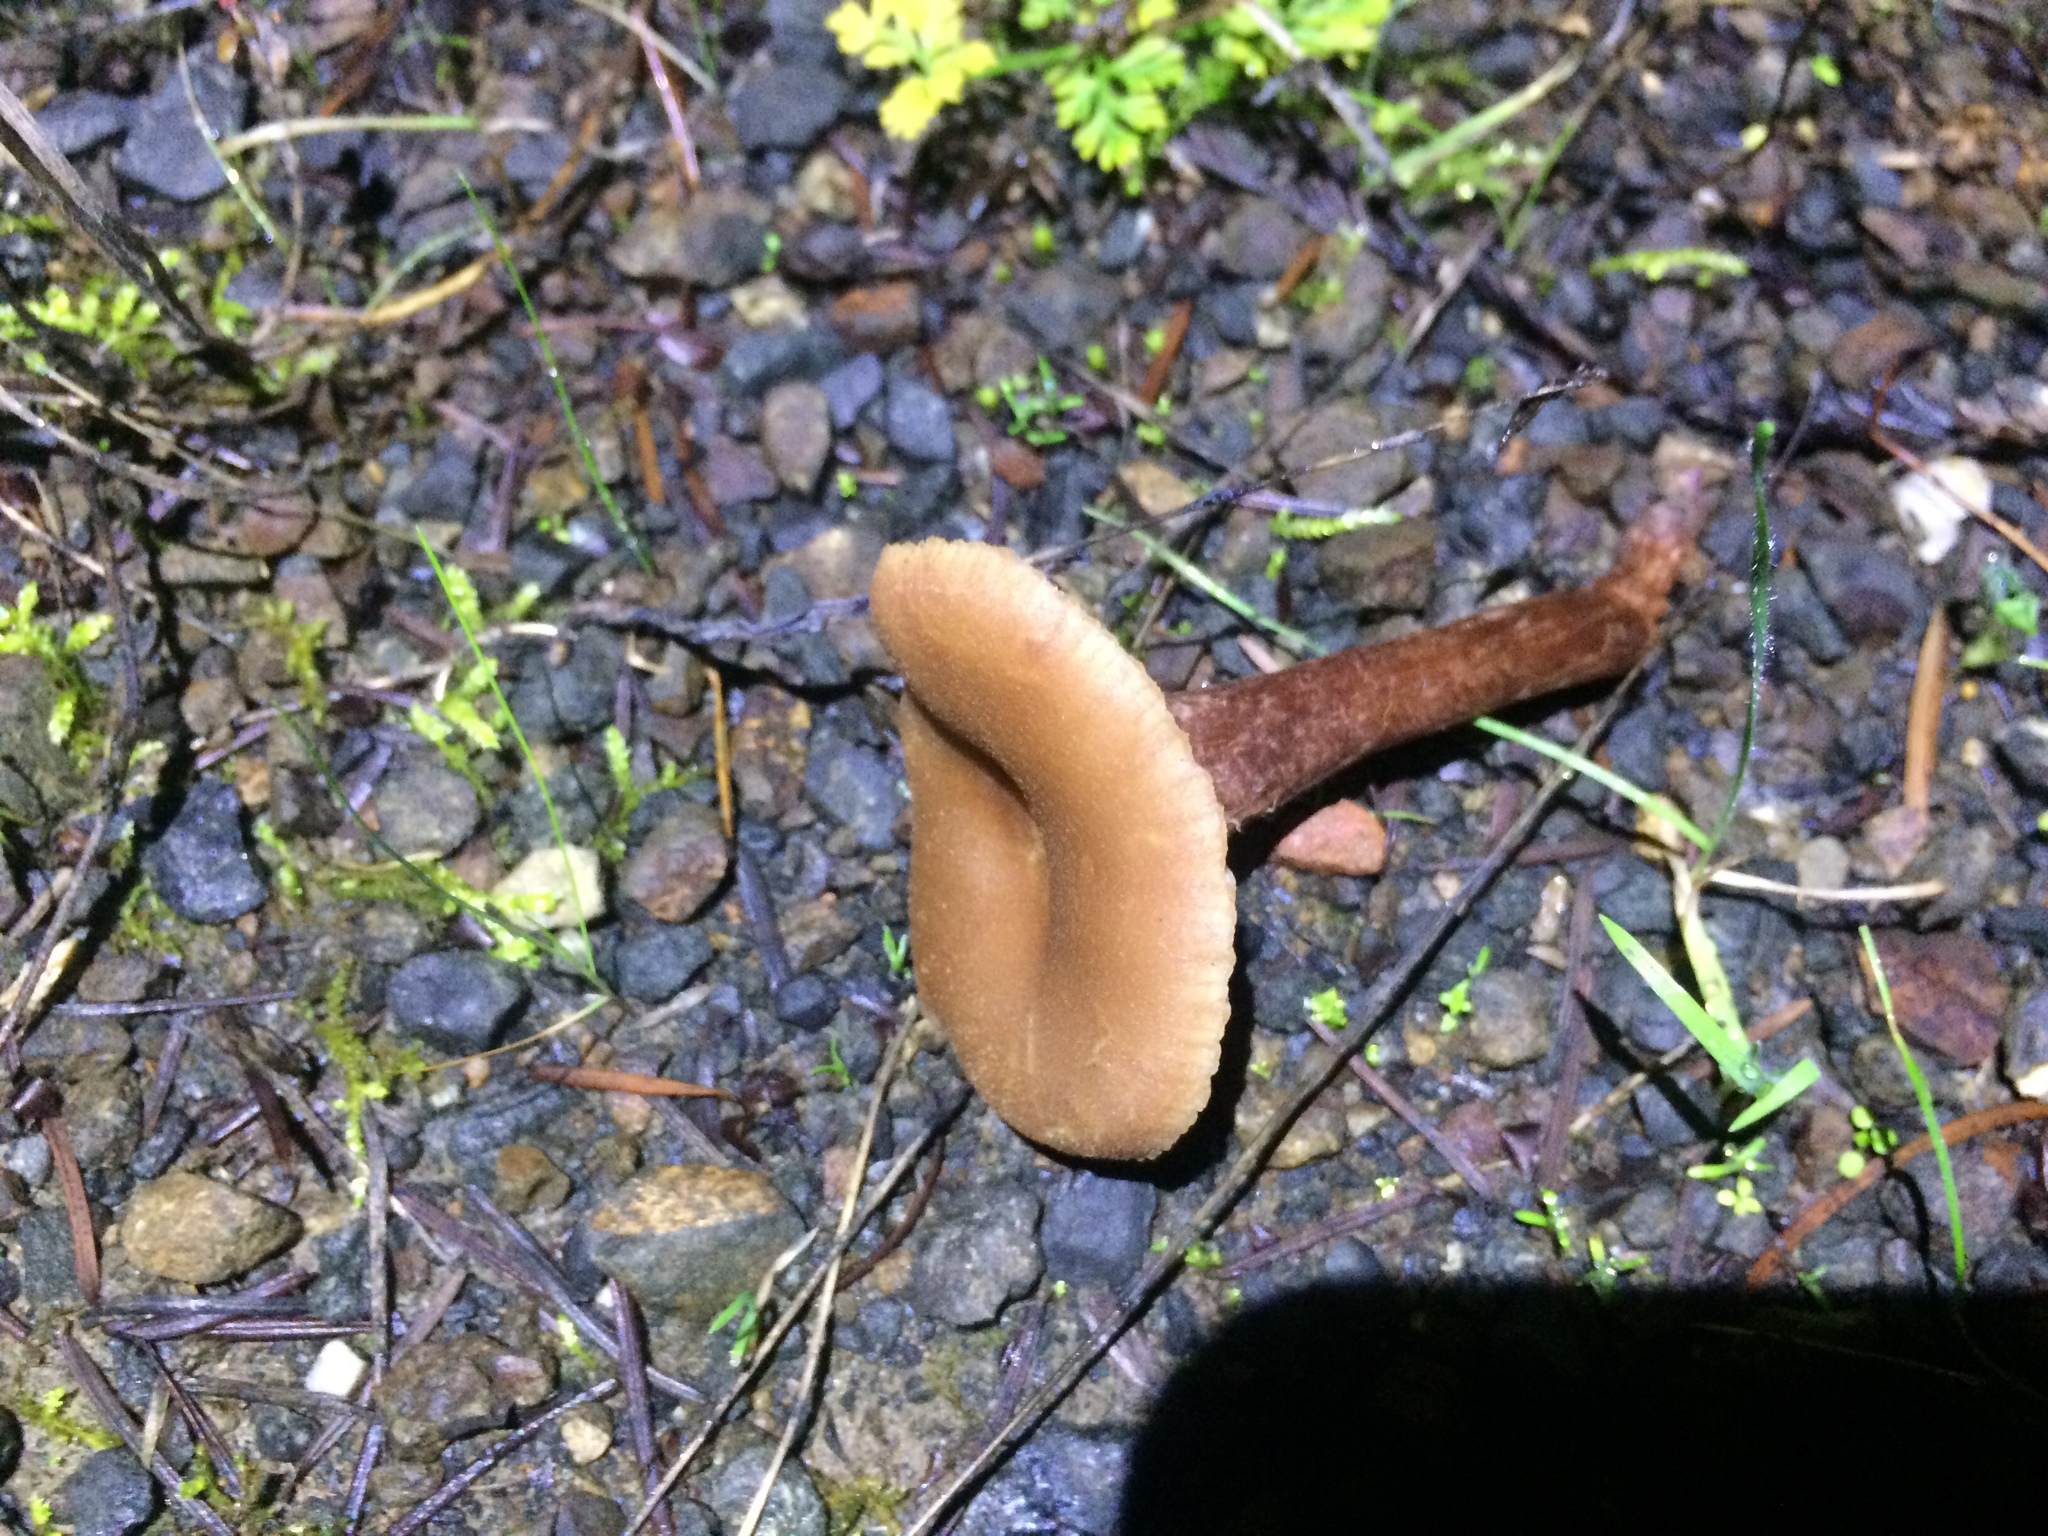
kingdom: Fungi
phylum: Basidiomycota
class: Agaricomycetes
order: Agaricales
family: Hydnangiaceae
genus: Laccaria
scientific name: Laccaria amethysteo-occidentalis
